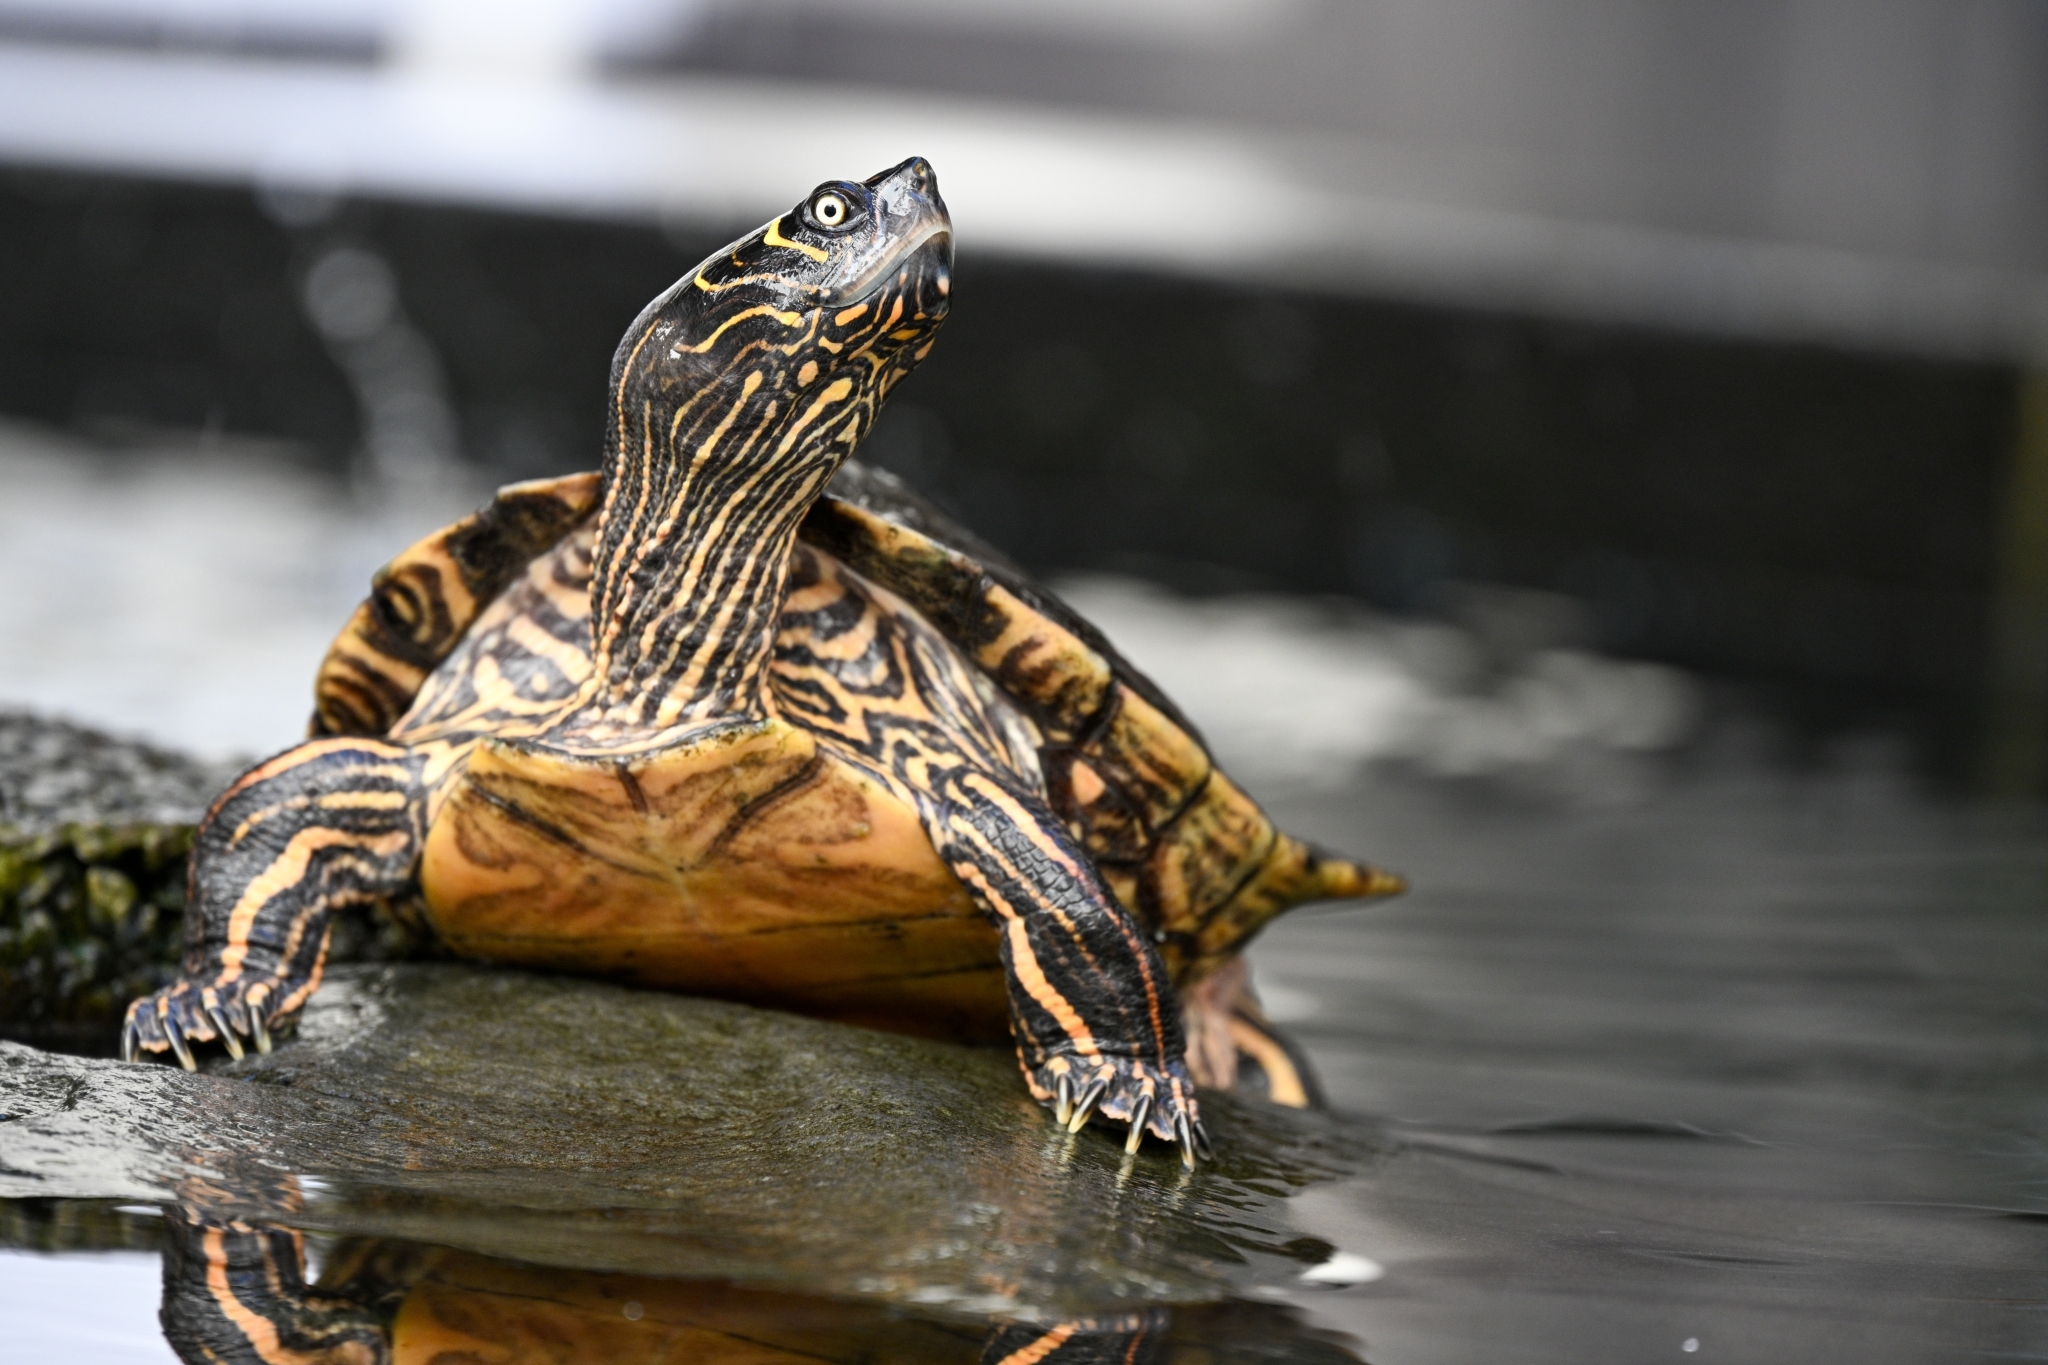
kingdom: Animalia
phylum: Chordata
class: Testudines
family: Emydidae
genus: Graptemys
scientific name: Graptemys pseudogeographica
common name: False map turtle
